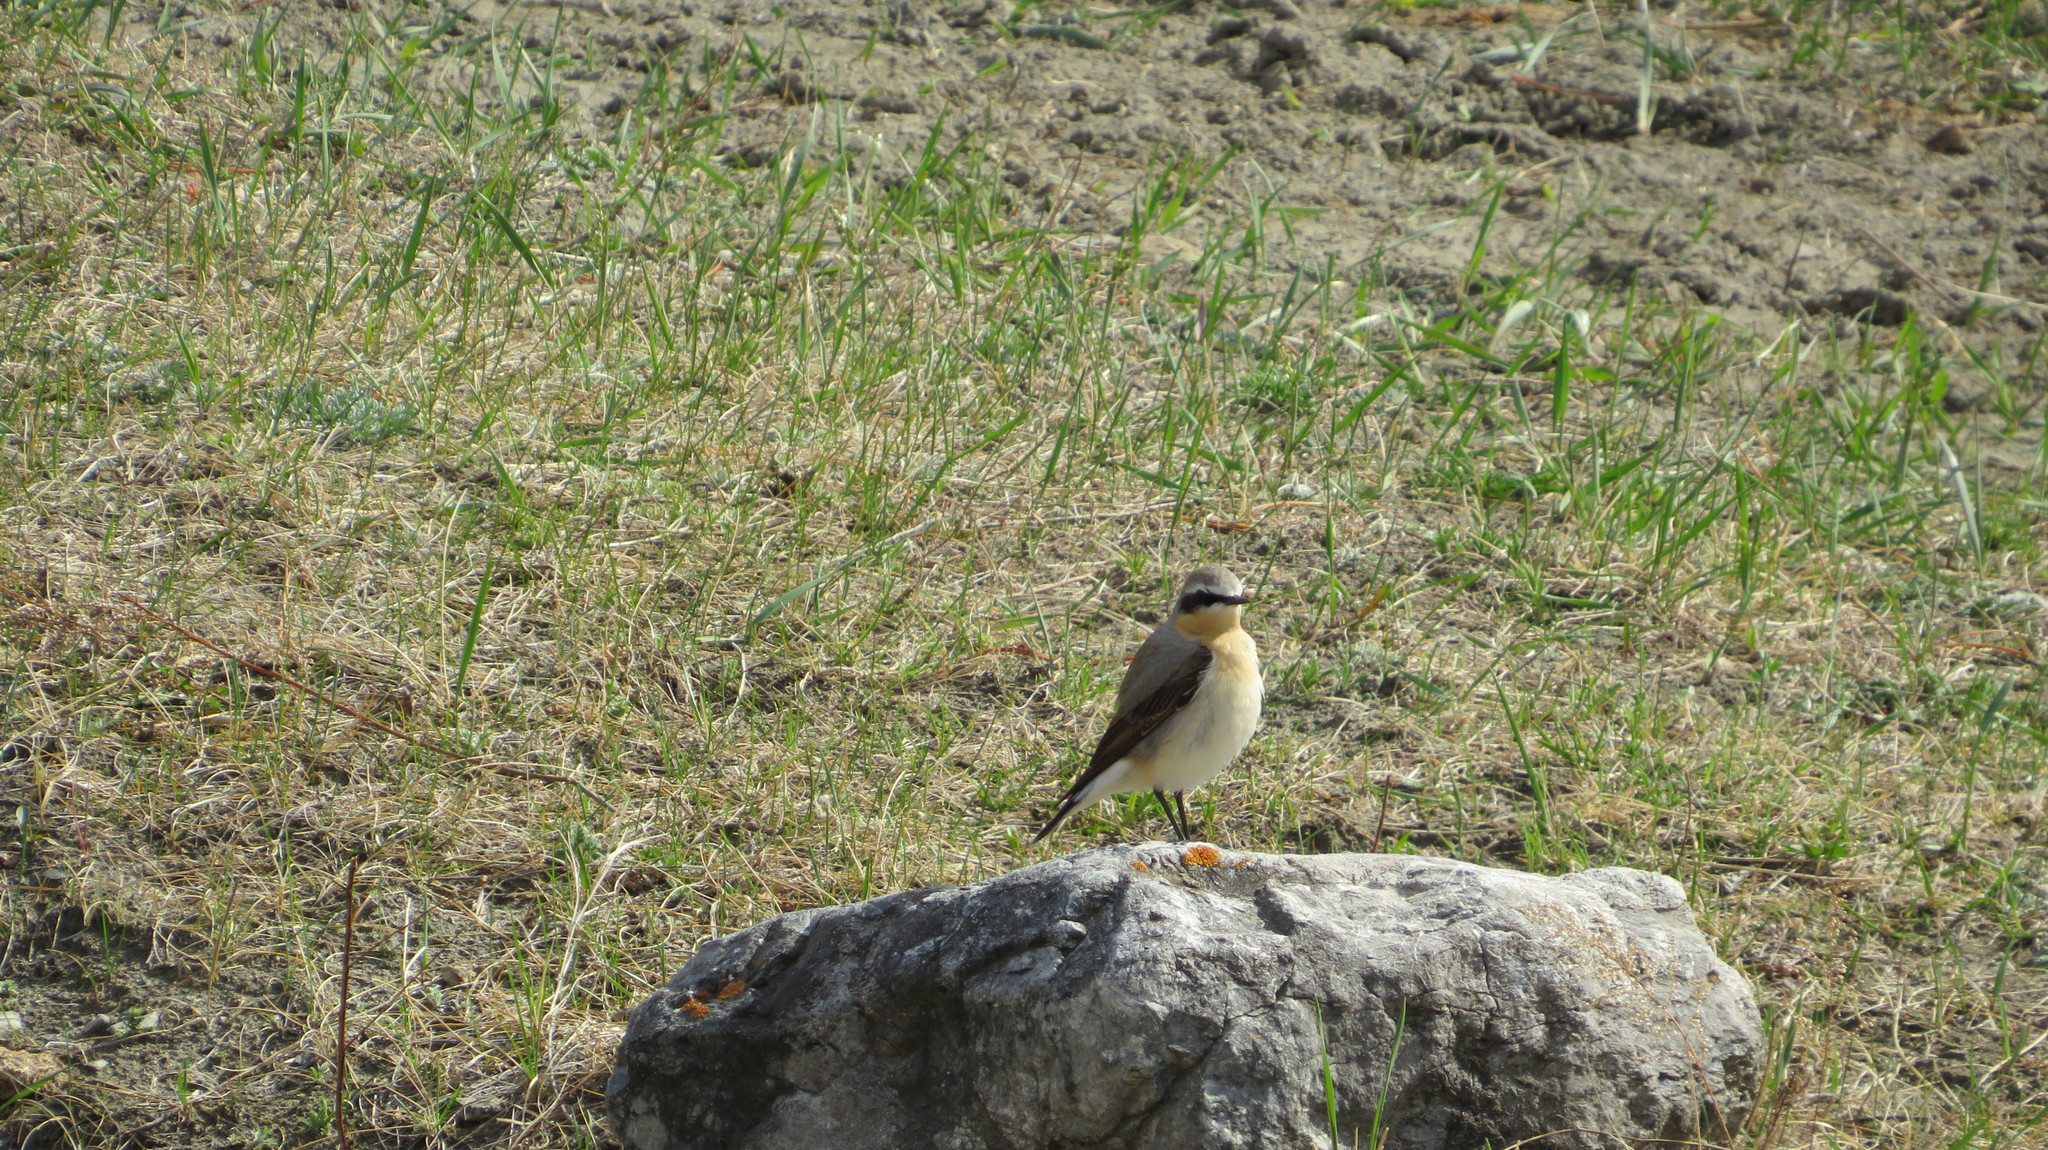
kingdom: Animalia
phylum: Chordata
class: Aves
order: Passeriformes
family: Muscicapidae
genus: Oenanthe
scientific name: Oenanthe oenanthe
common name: Northern wheatear
